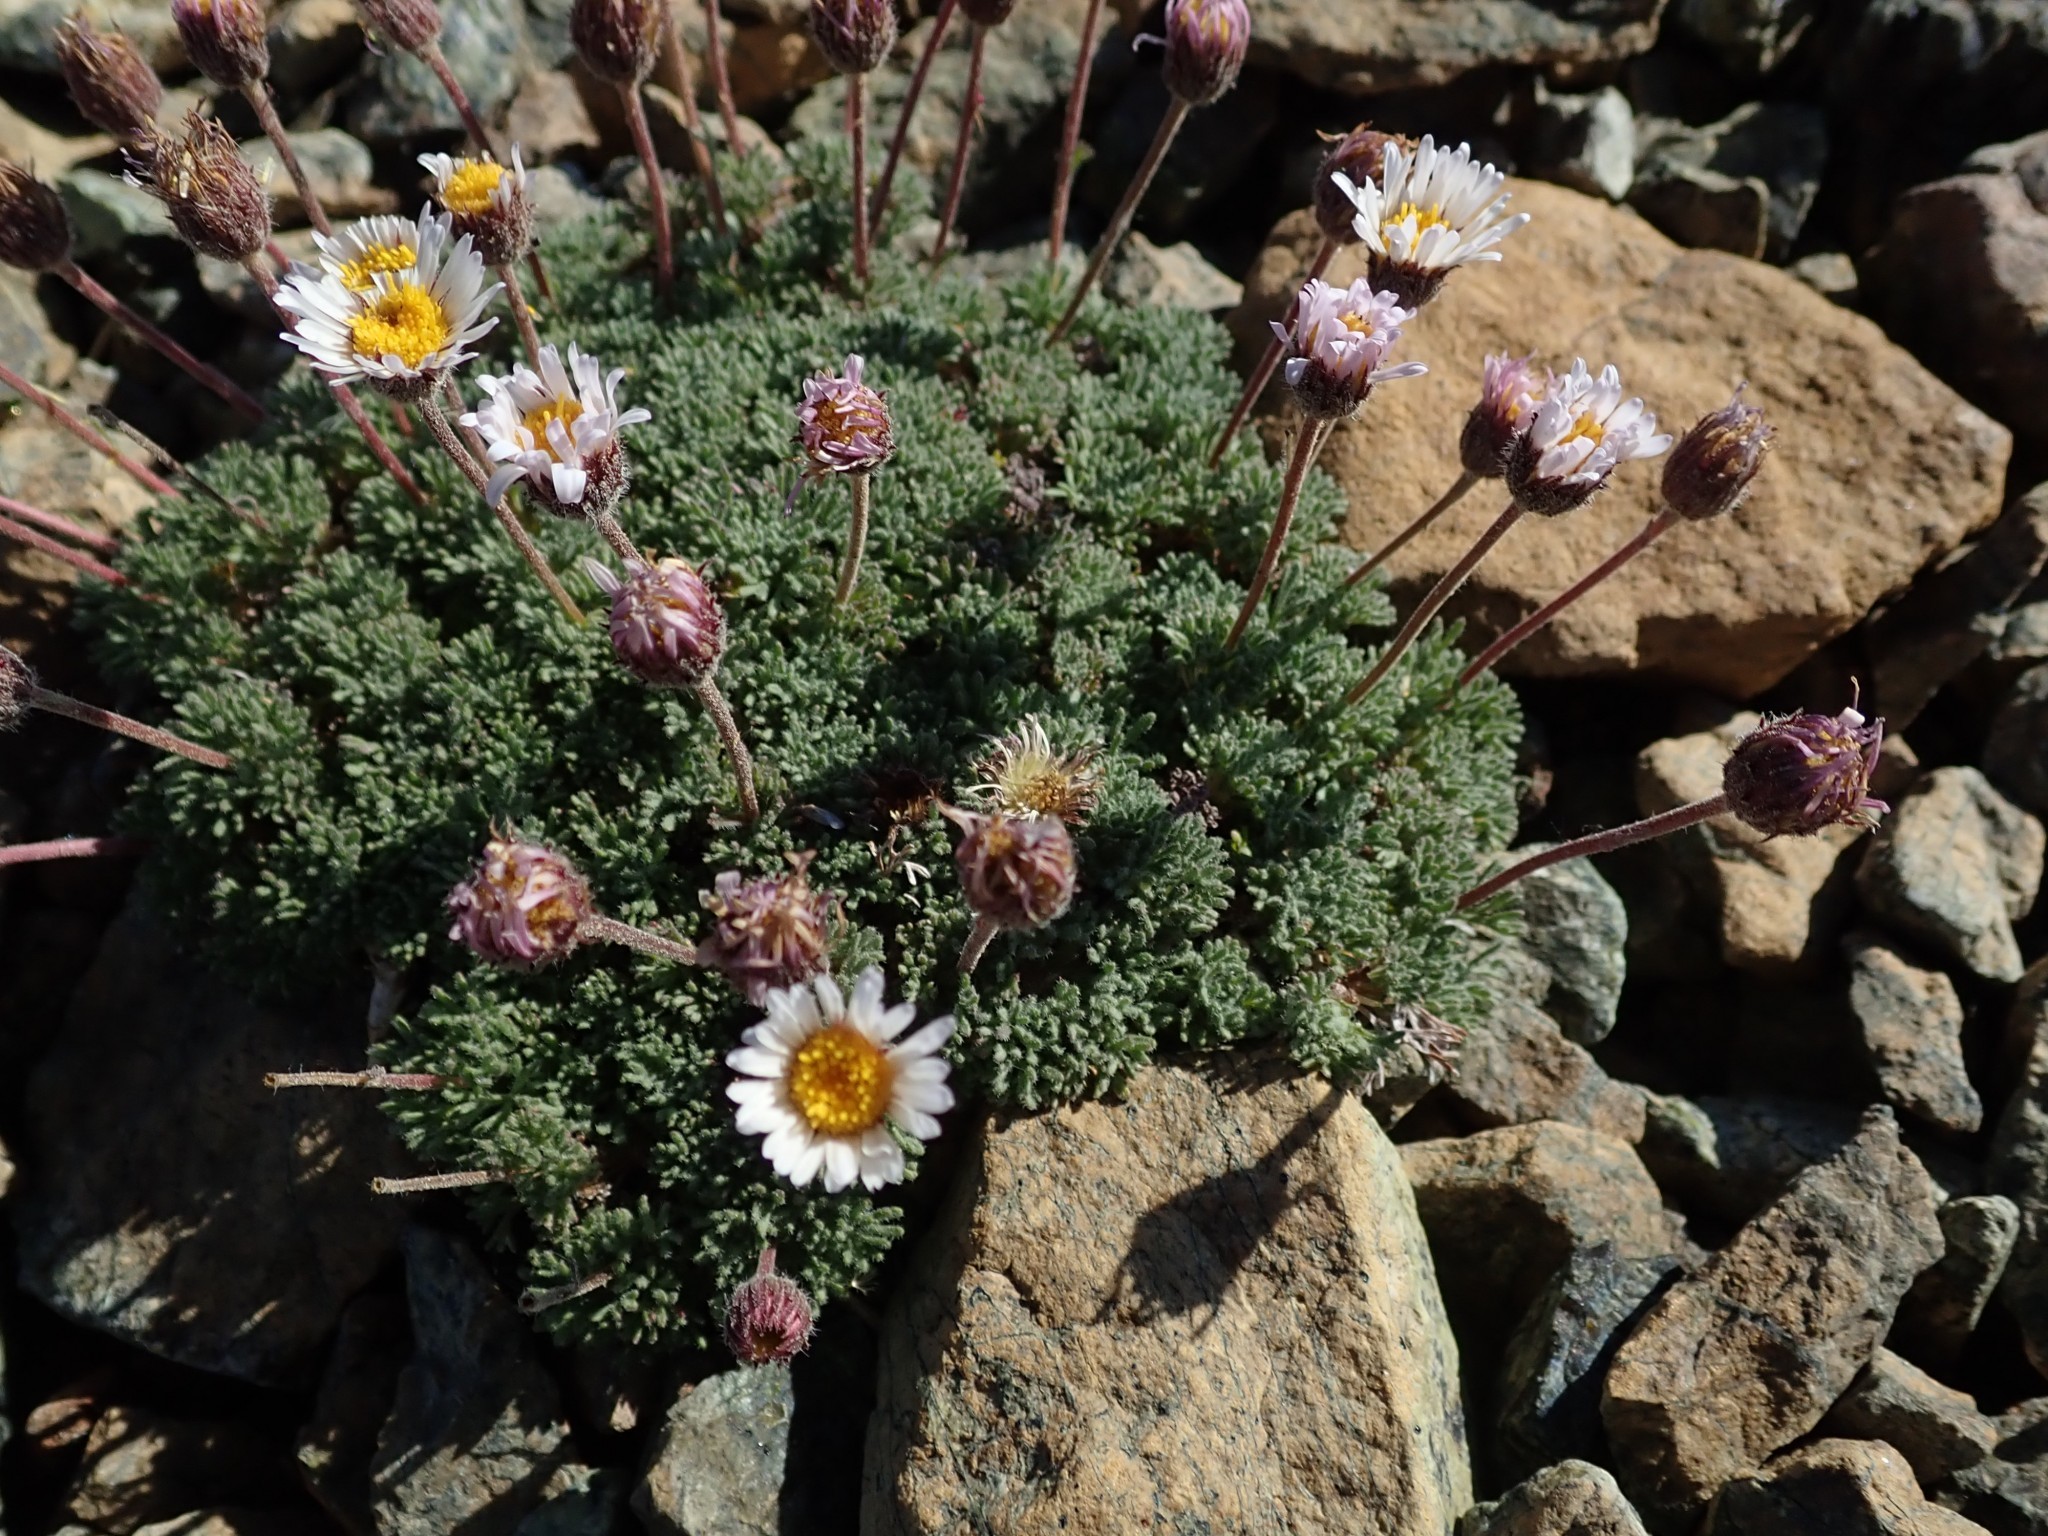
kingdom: Plantae
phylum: Tracheophyta
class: Magnoliopsida
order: Asterales
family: Asteraceae
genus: Erigeron
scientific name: Erigeron compositus
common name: Dwarf mountain fleabane
